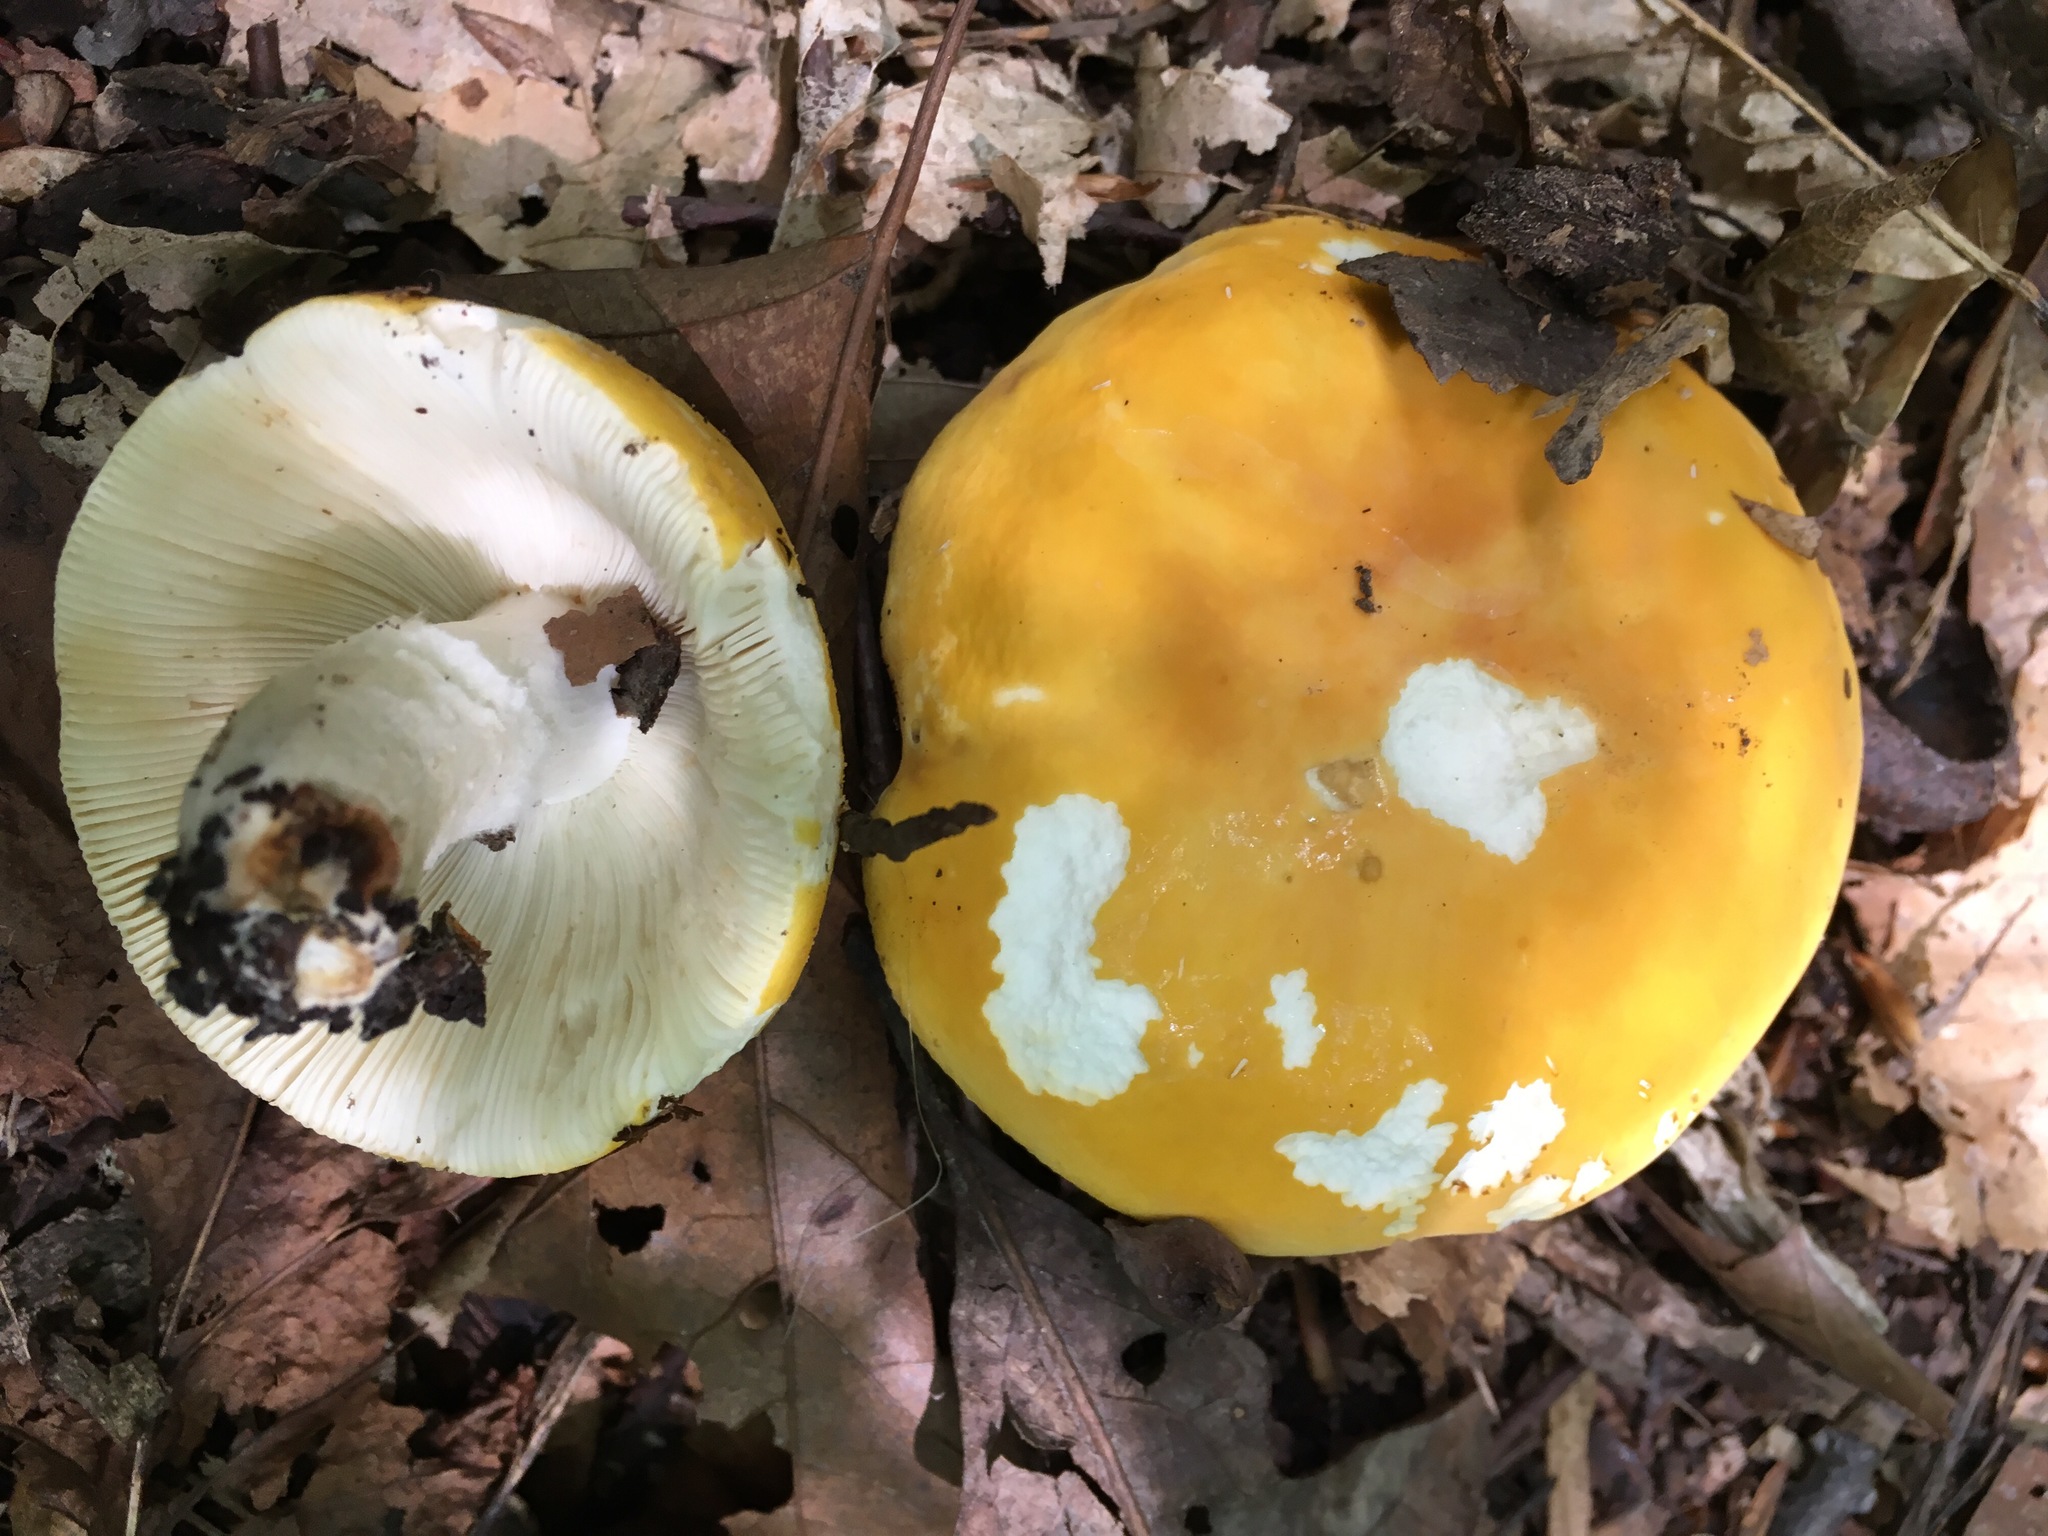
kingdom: Fungi
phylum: Basidiomycota
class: Agaricomycetes
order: Russulales
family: Russulaceae
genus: Russula
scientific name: Russula ochroleuca
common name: Common yellow russula
